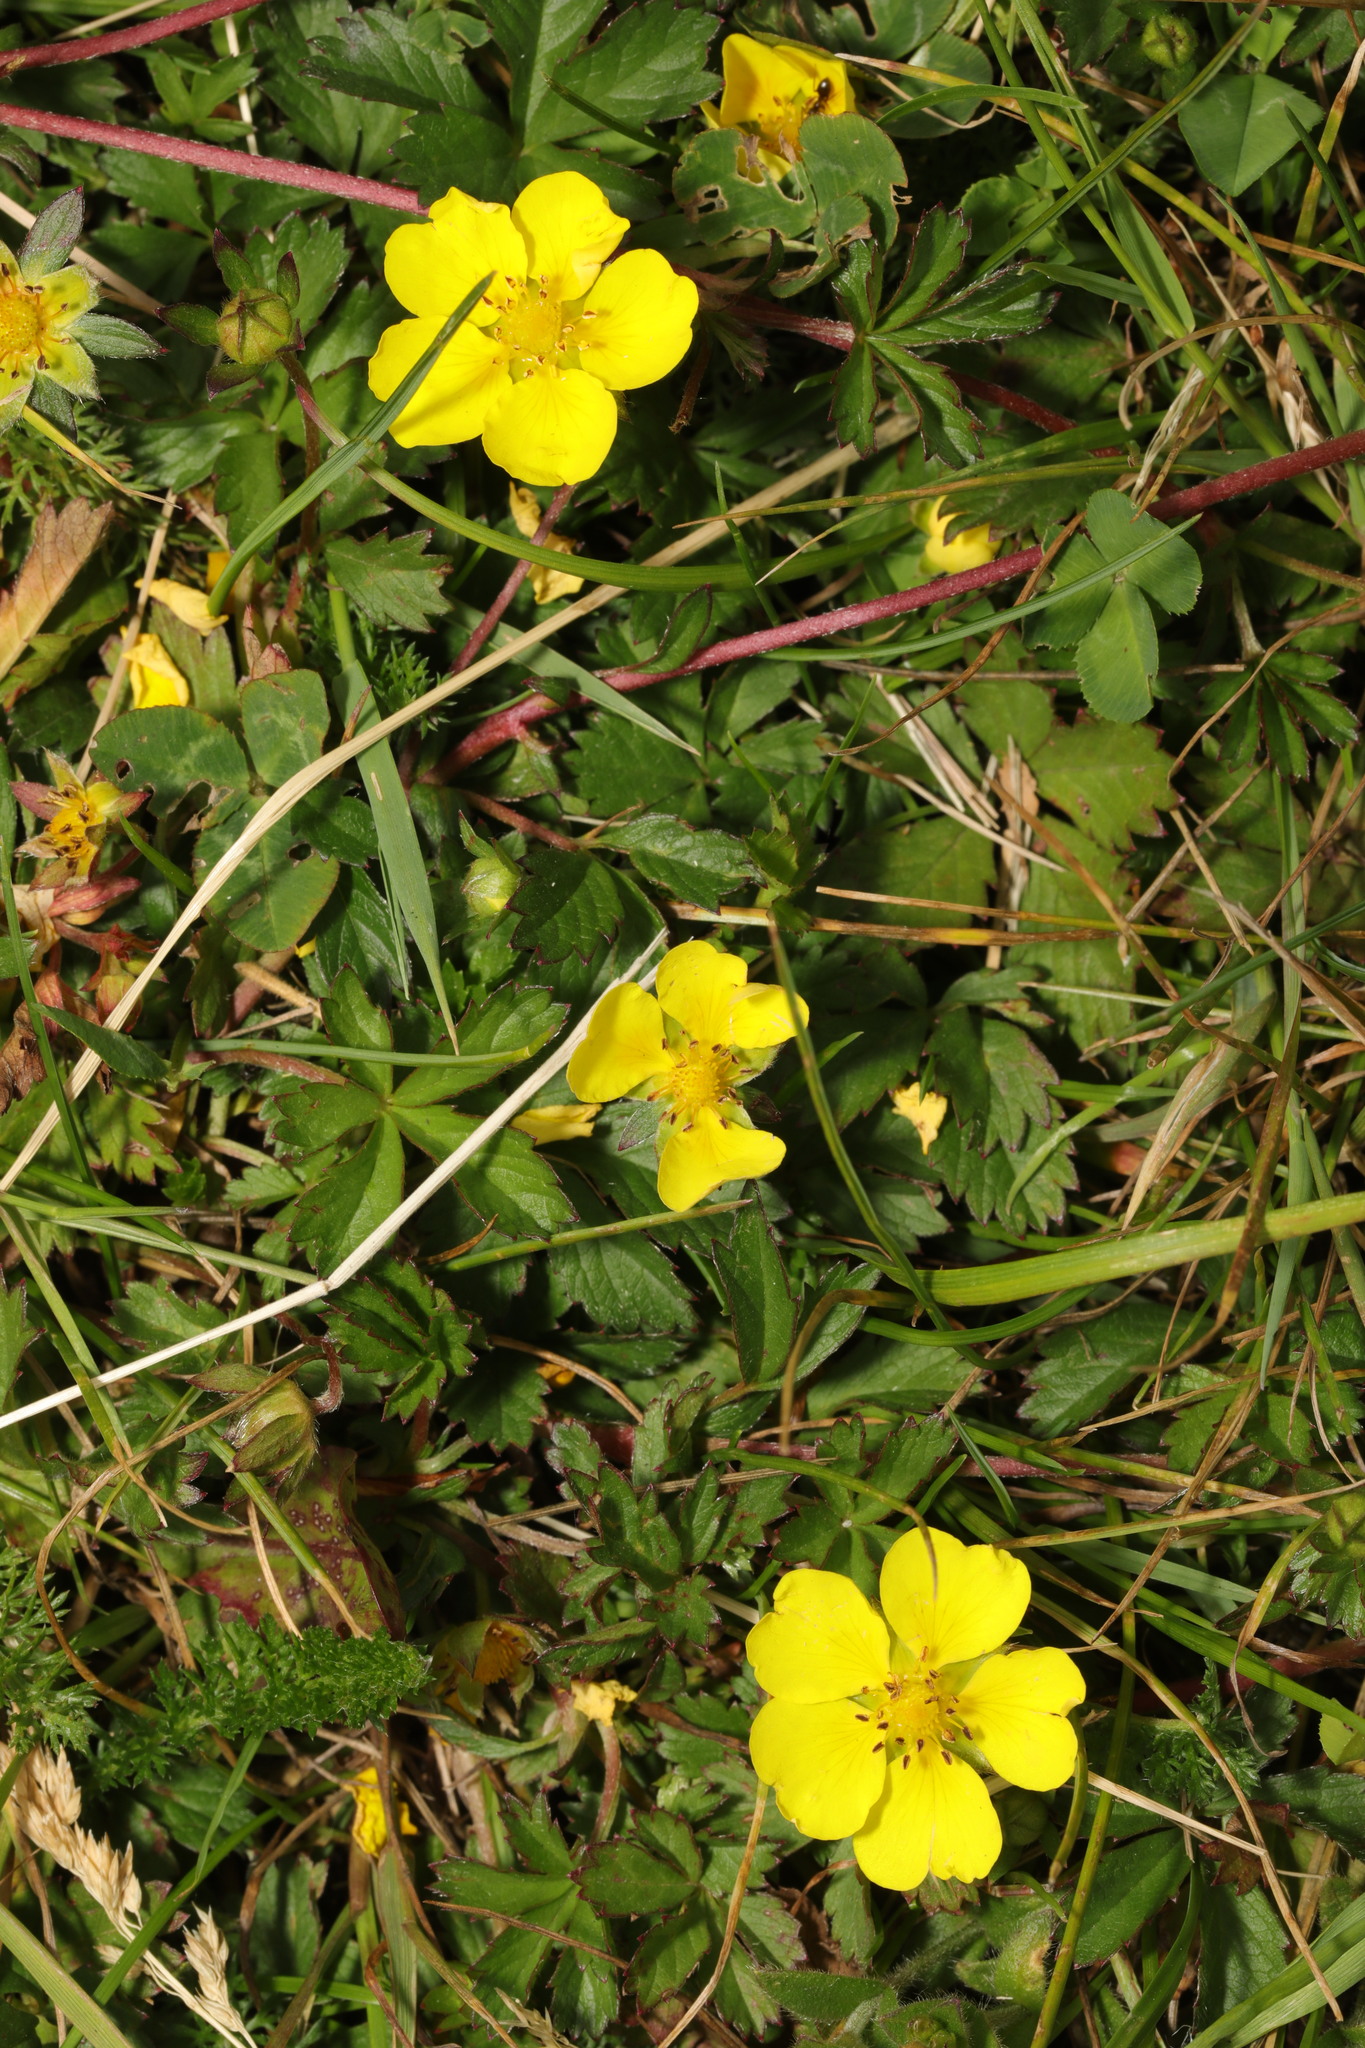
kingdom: Plantae
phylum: Tracheophyta
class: Magnoliopsida
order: Rosales
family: Rosaceae
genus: Potentilla
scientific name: Potentilla reptans
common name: Creeping cinquefoil
